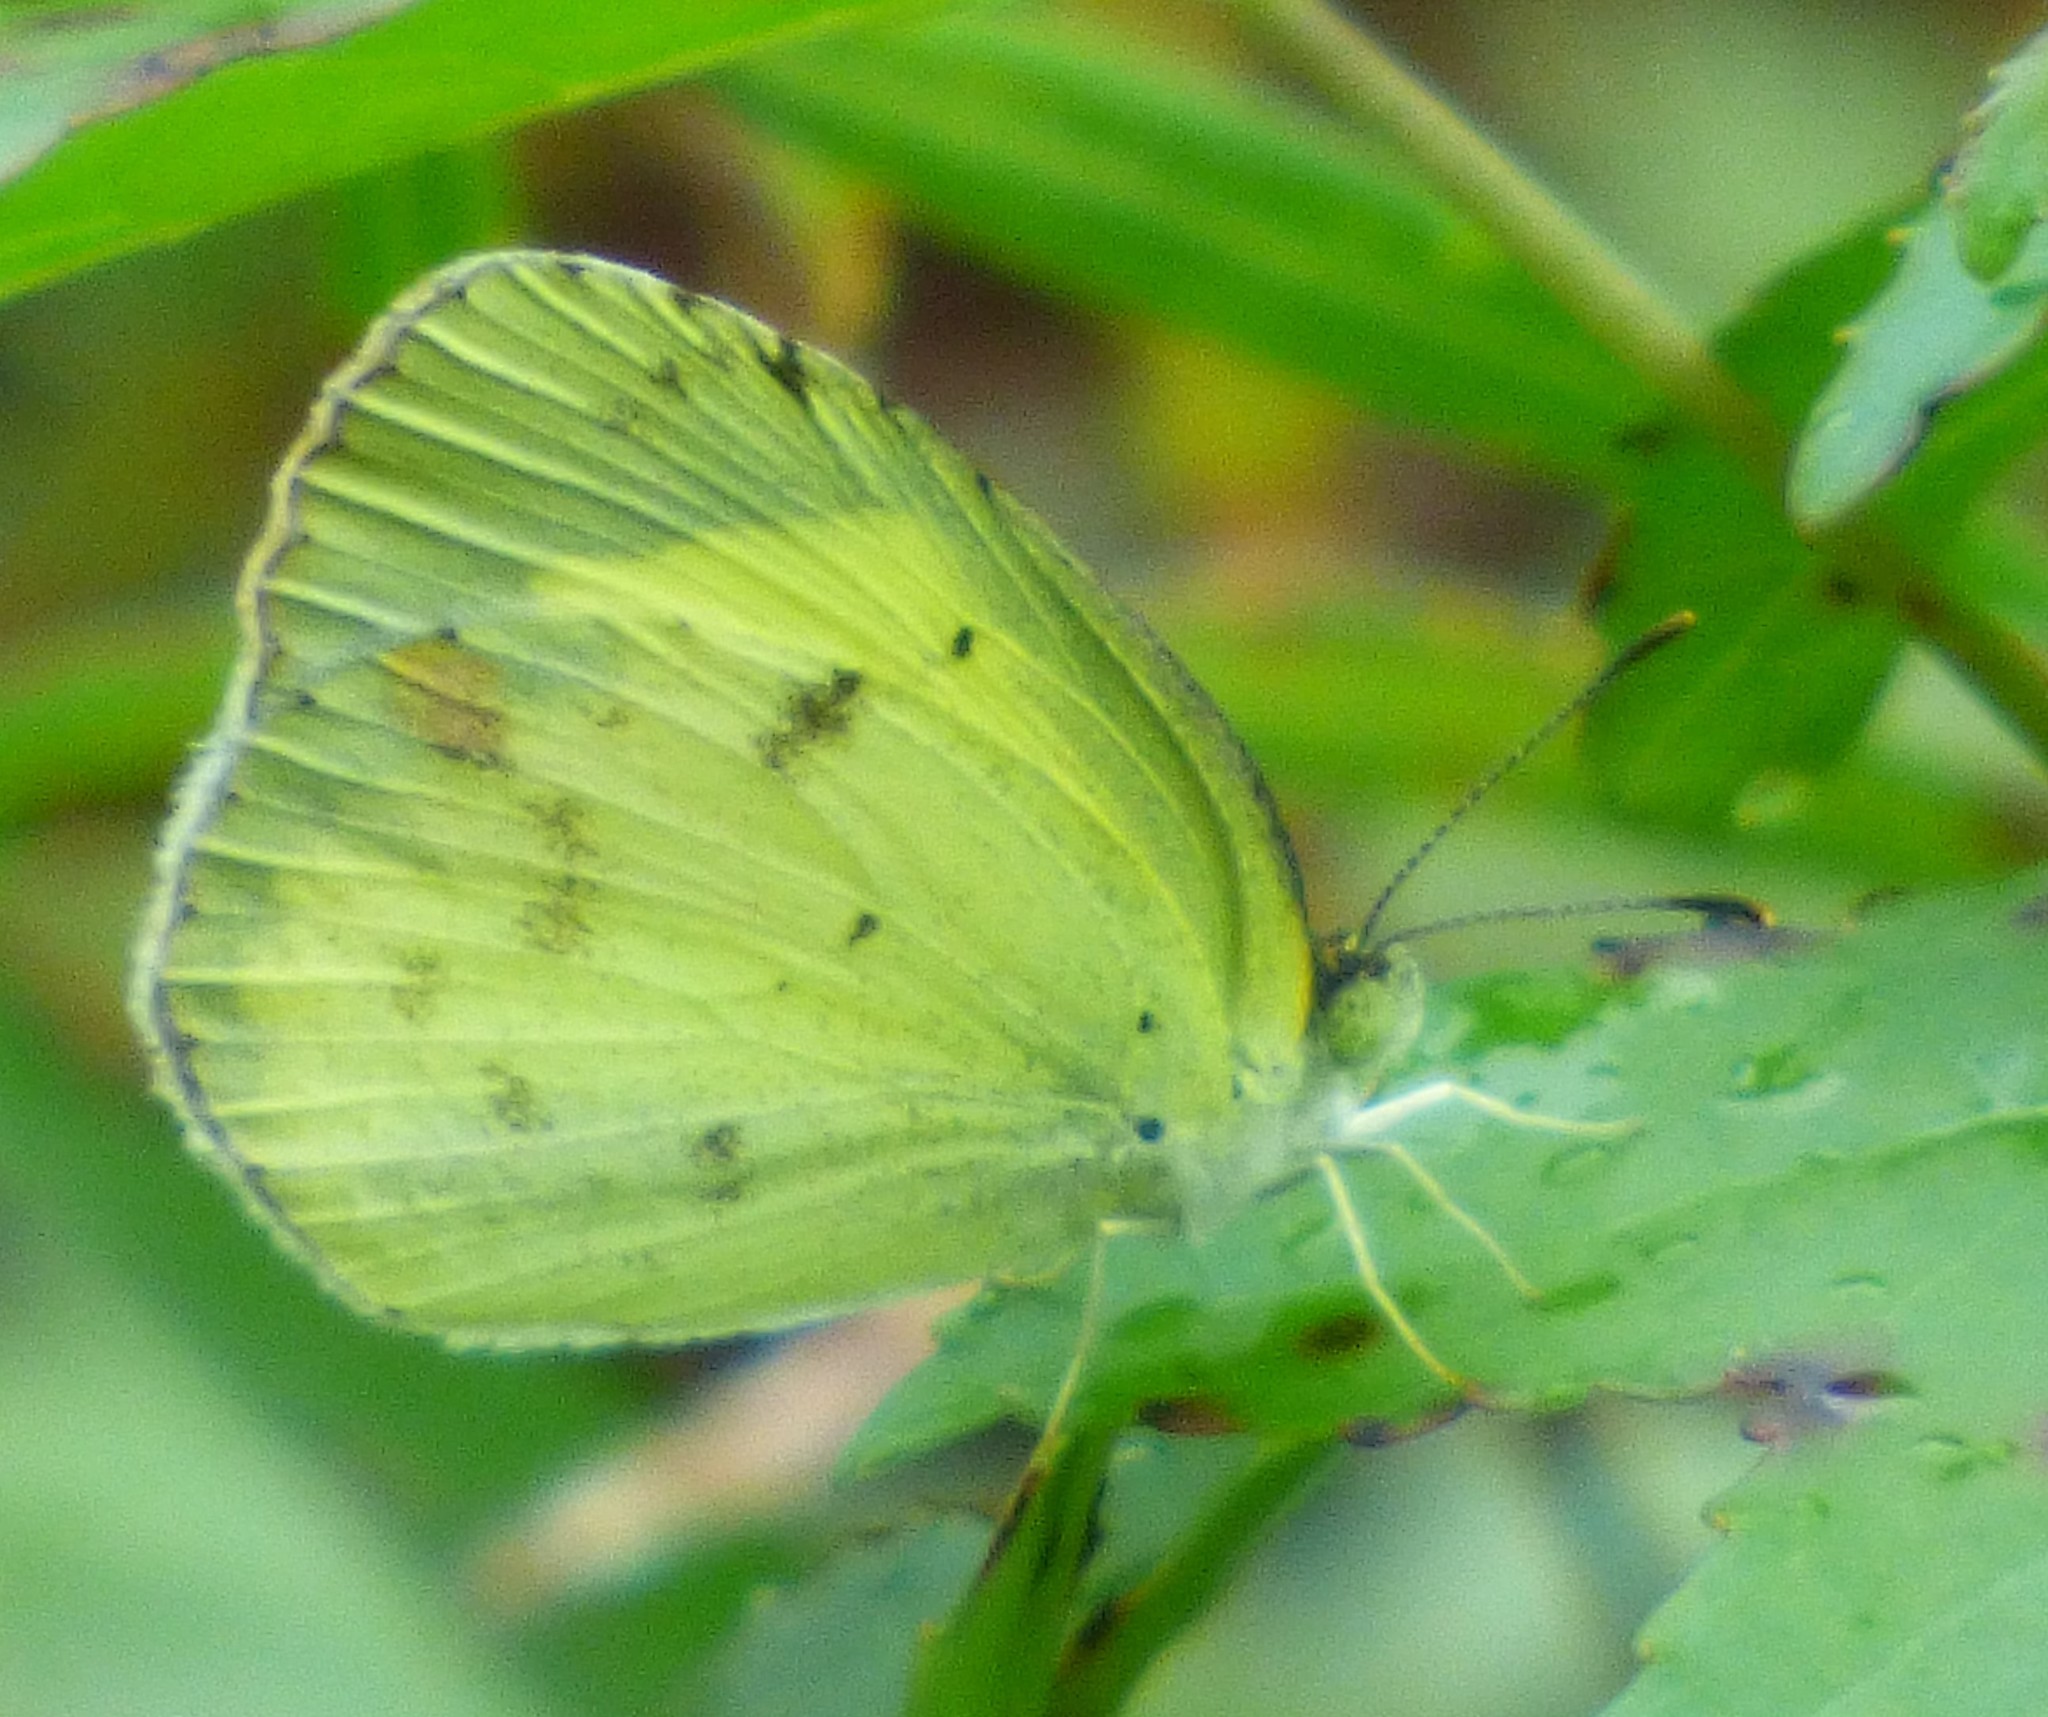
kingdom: Animalia
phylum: Arthropoda
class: Insecta
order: Lepidoptera
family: Pieridae
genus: Pyrisitia
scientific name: Pyrisitia lisa
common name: Little yellow
